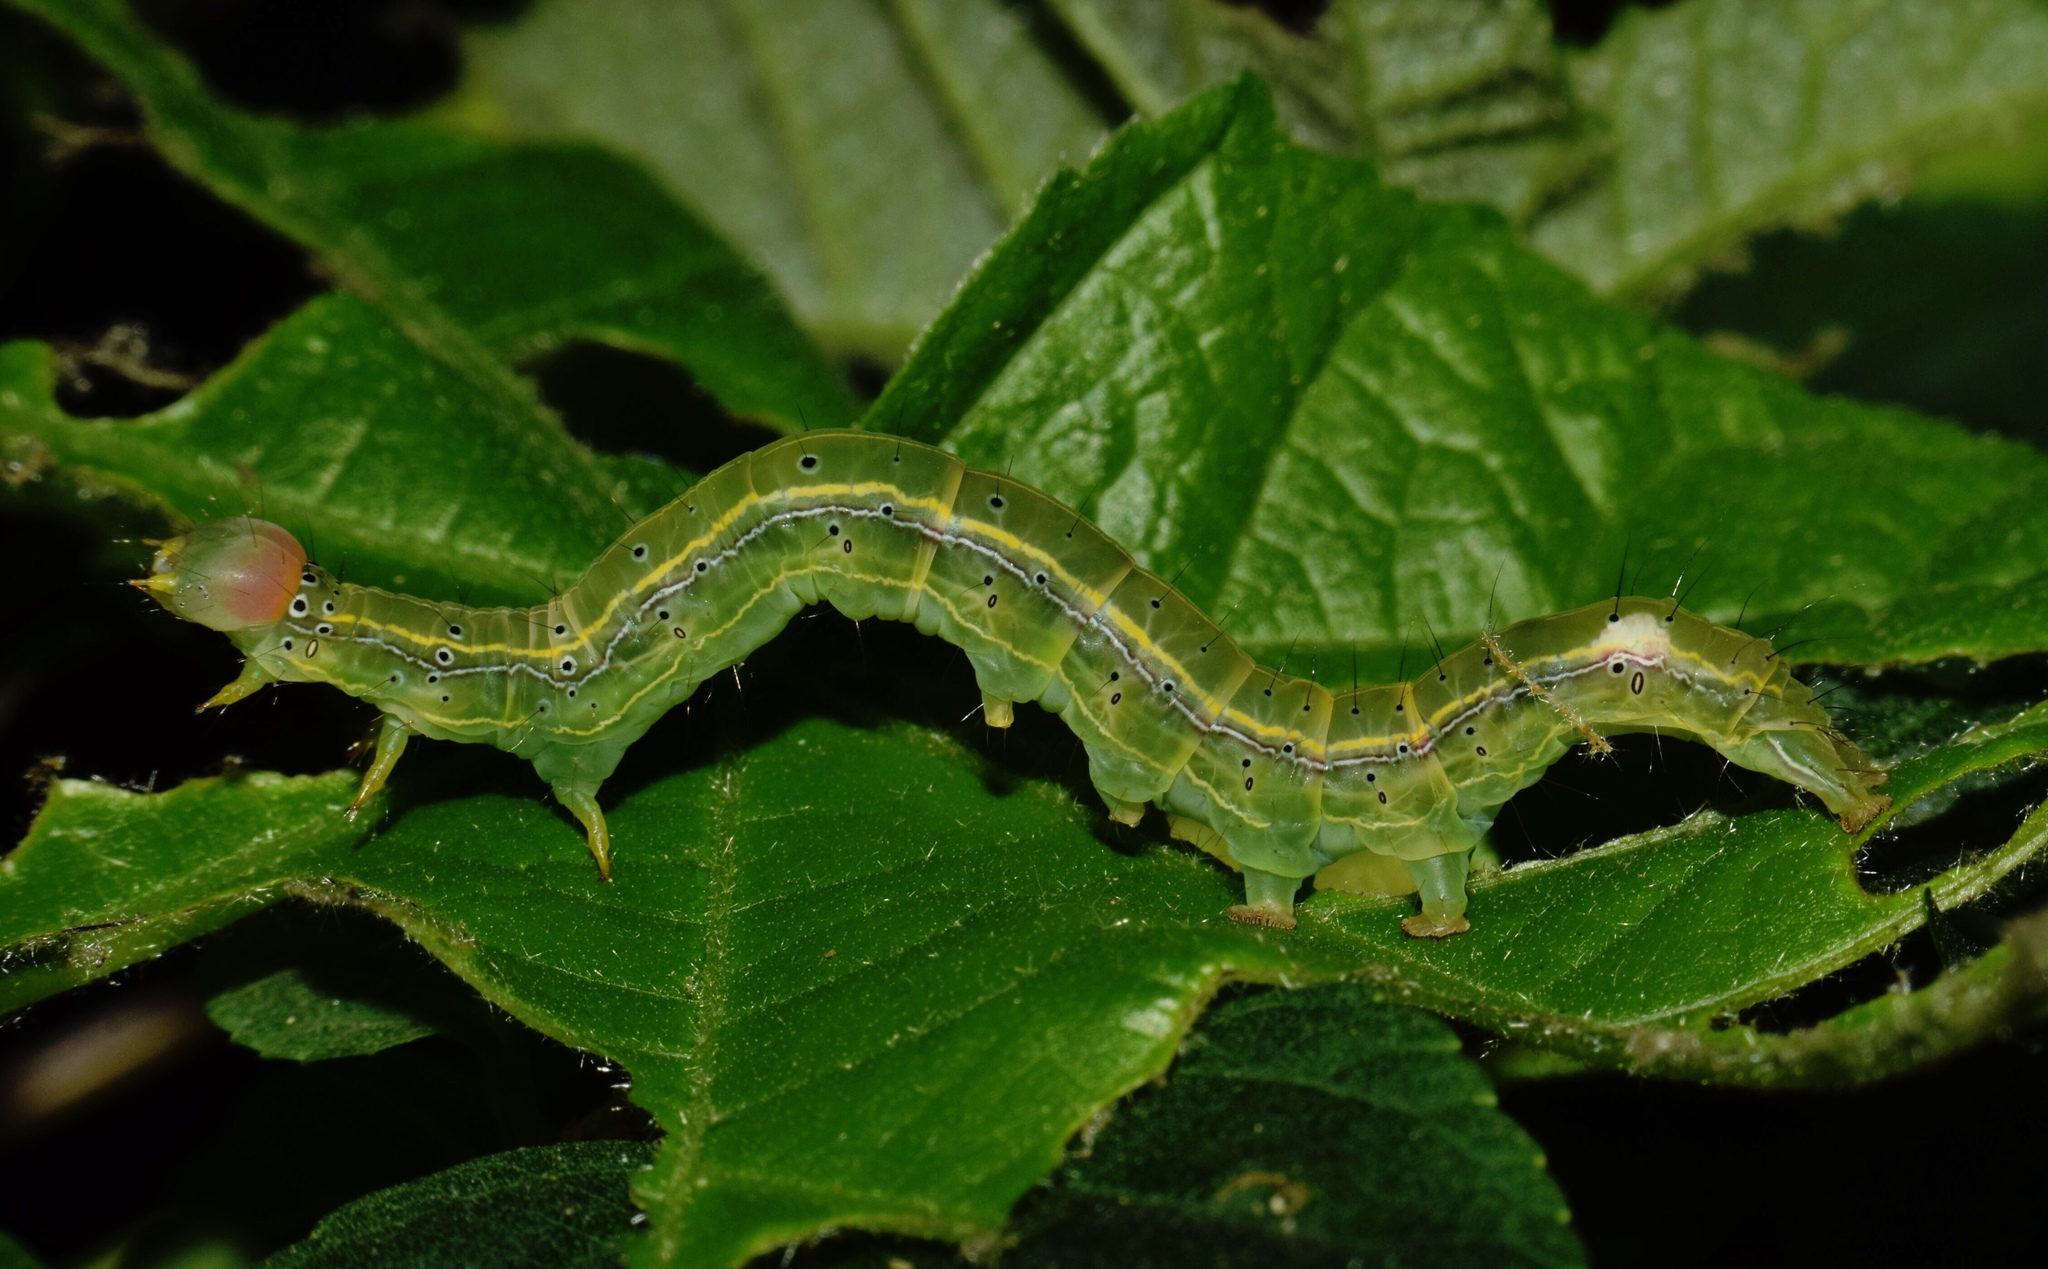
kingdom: Animalia
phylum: Arthropoda
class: Insecta
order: Lepidoptera
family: Erebidae
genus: Anomis
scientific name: Anomis leona
